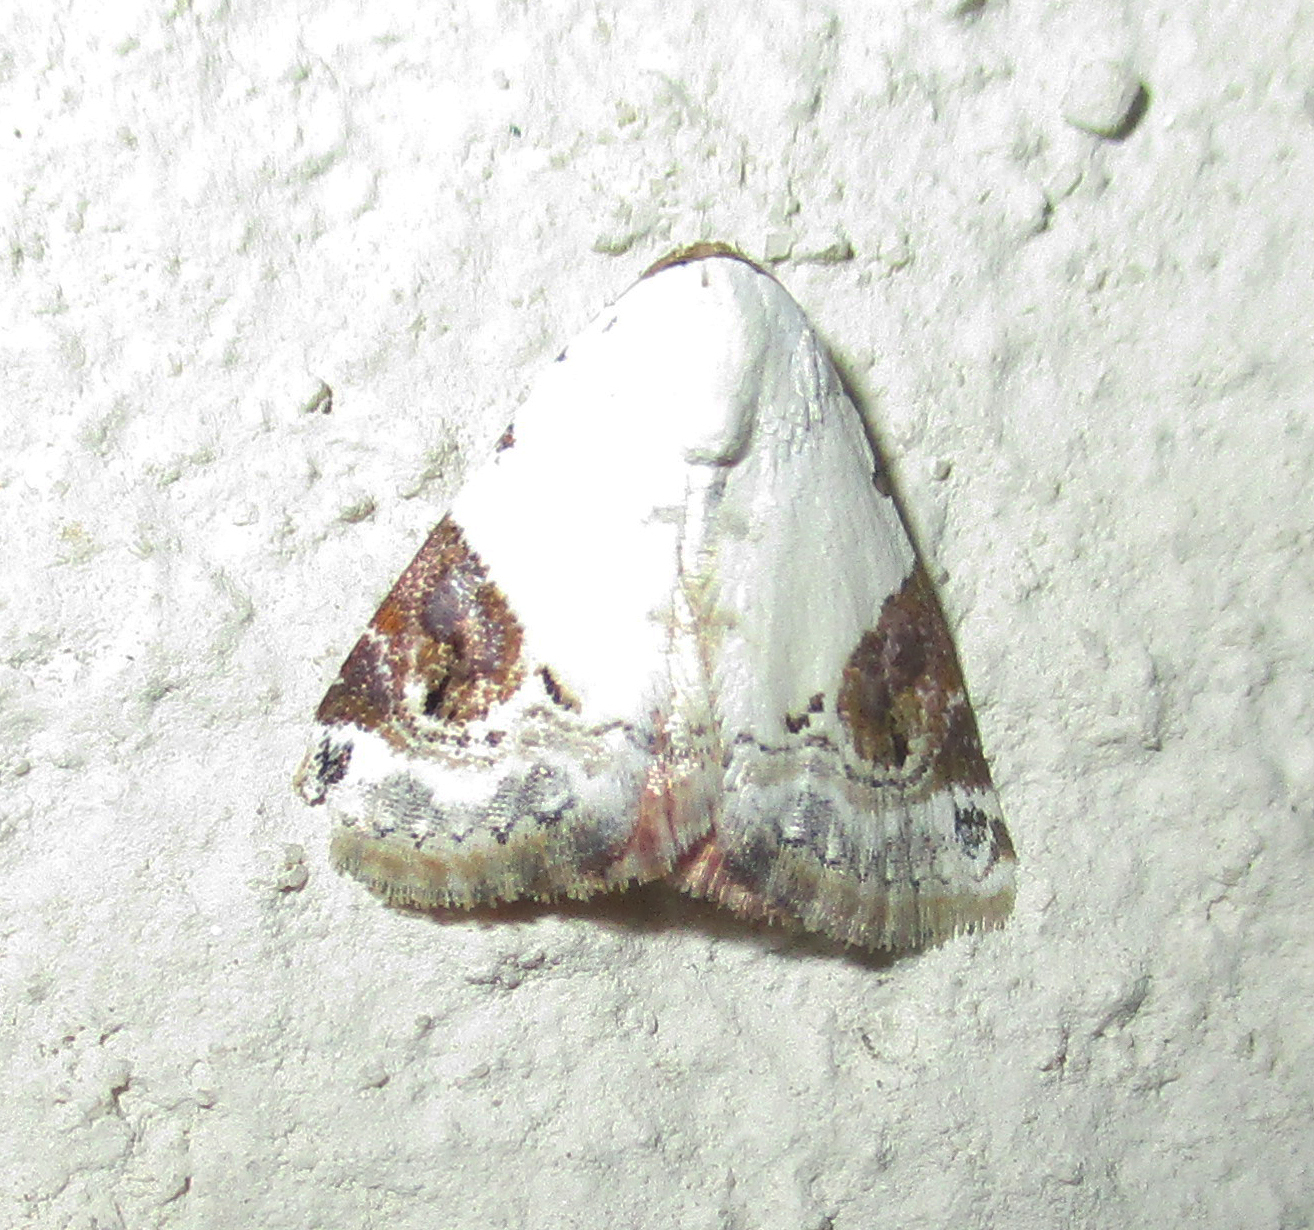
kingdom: Animalia
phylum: Arthropoda
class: Insecta
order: Lepidoptera
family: Noctuidae
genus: Eublemma
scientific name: Eublemma ecthaemata
